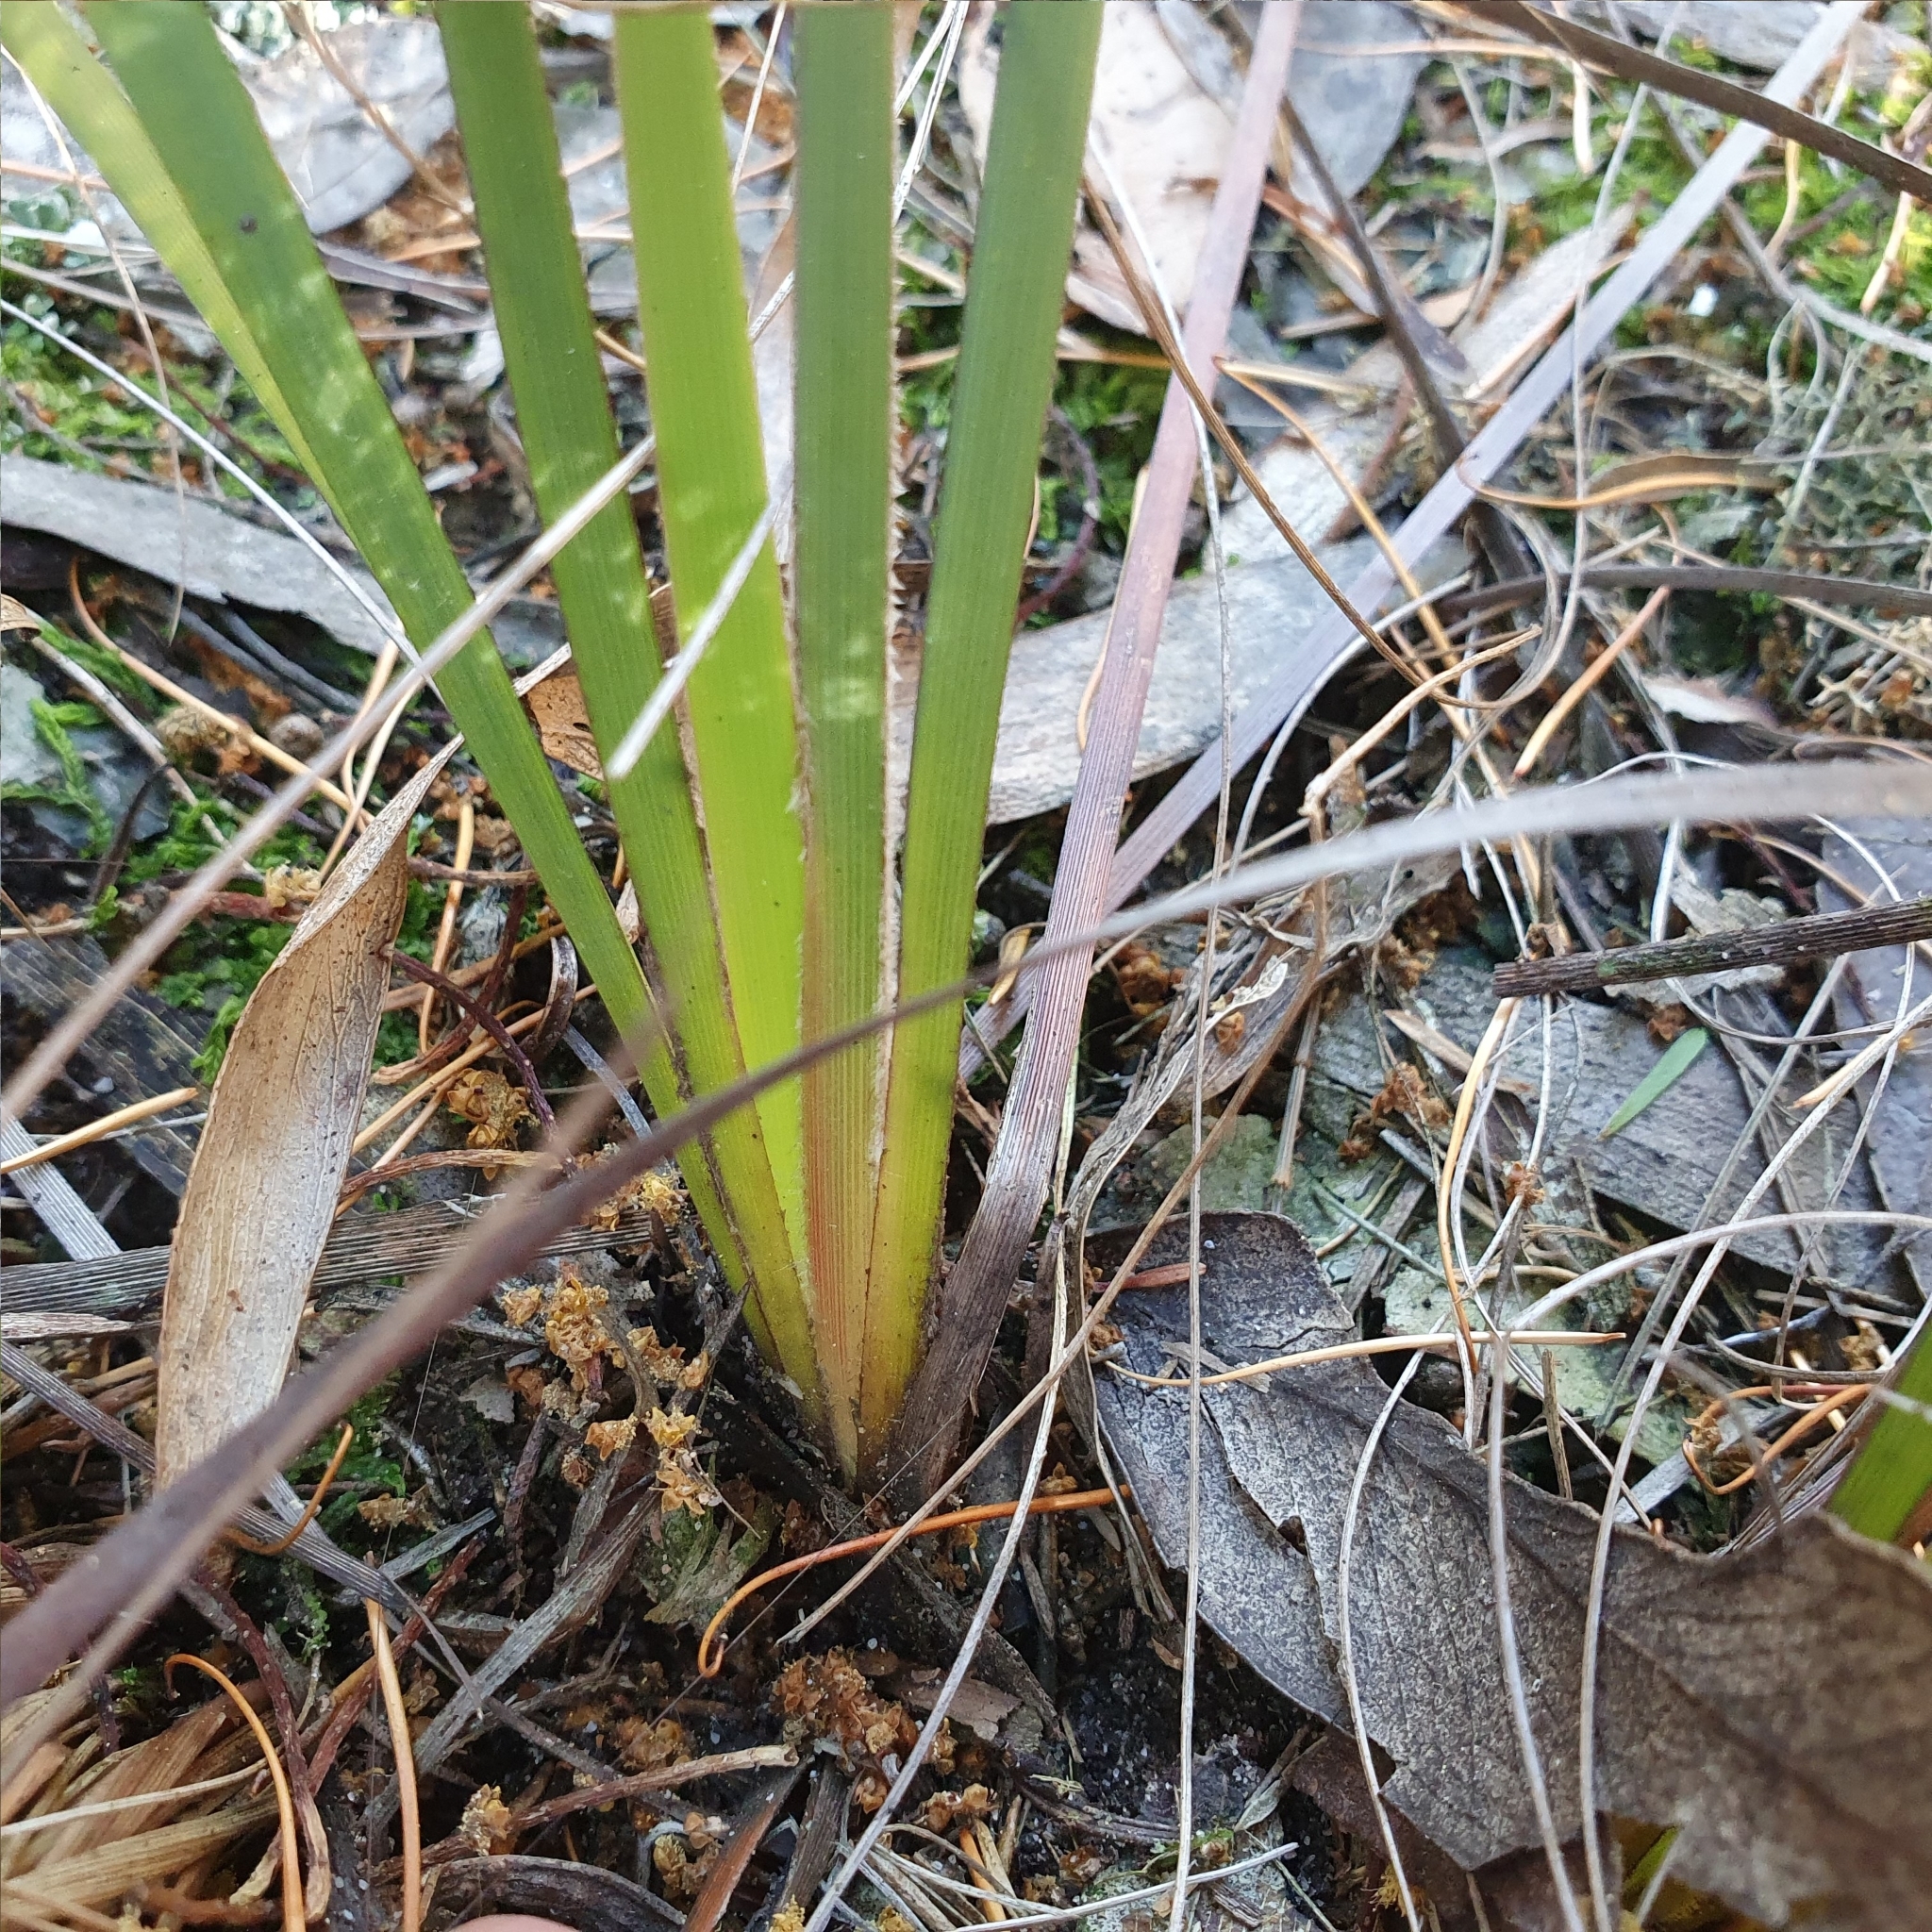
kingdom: Plantae
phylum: Tracheophyta
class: Liliopsida
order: Asparagales
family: Iridaceae
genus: Patersonia
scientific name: Patersonia sericea
